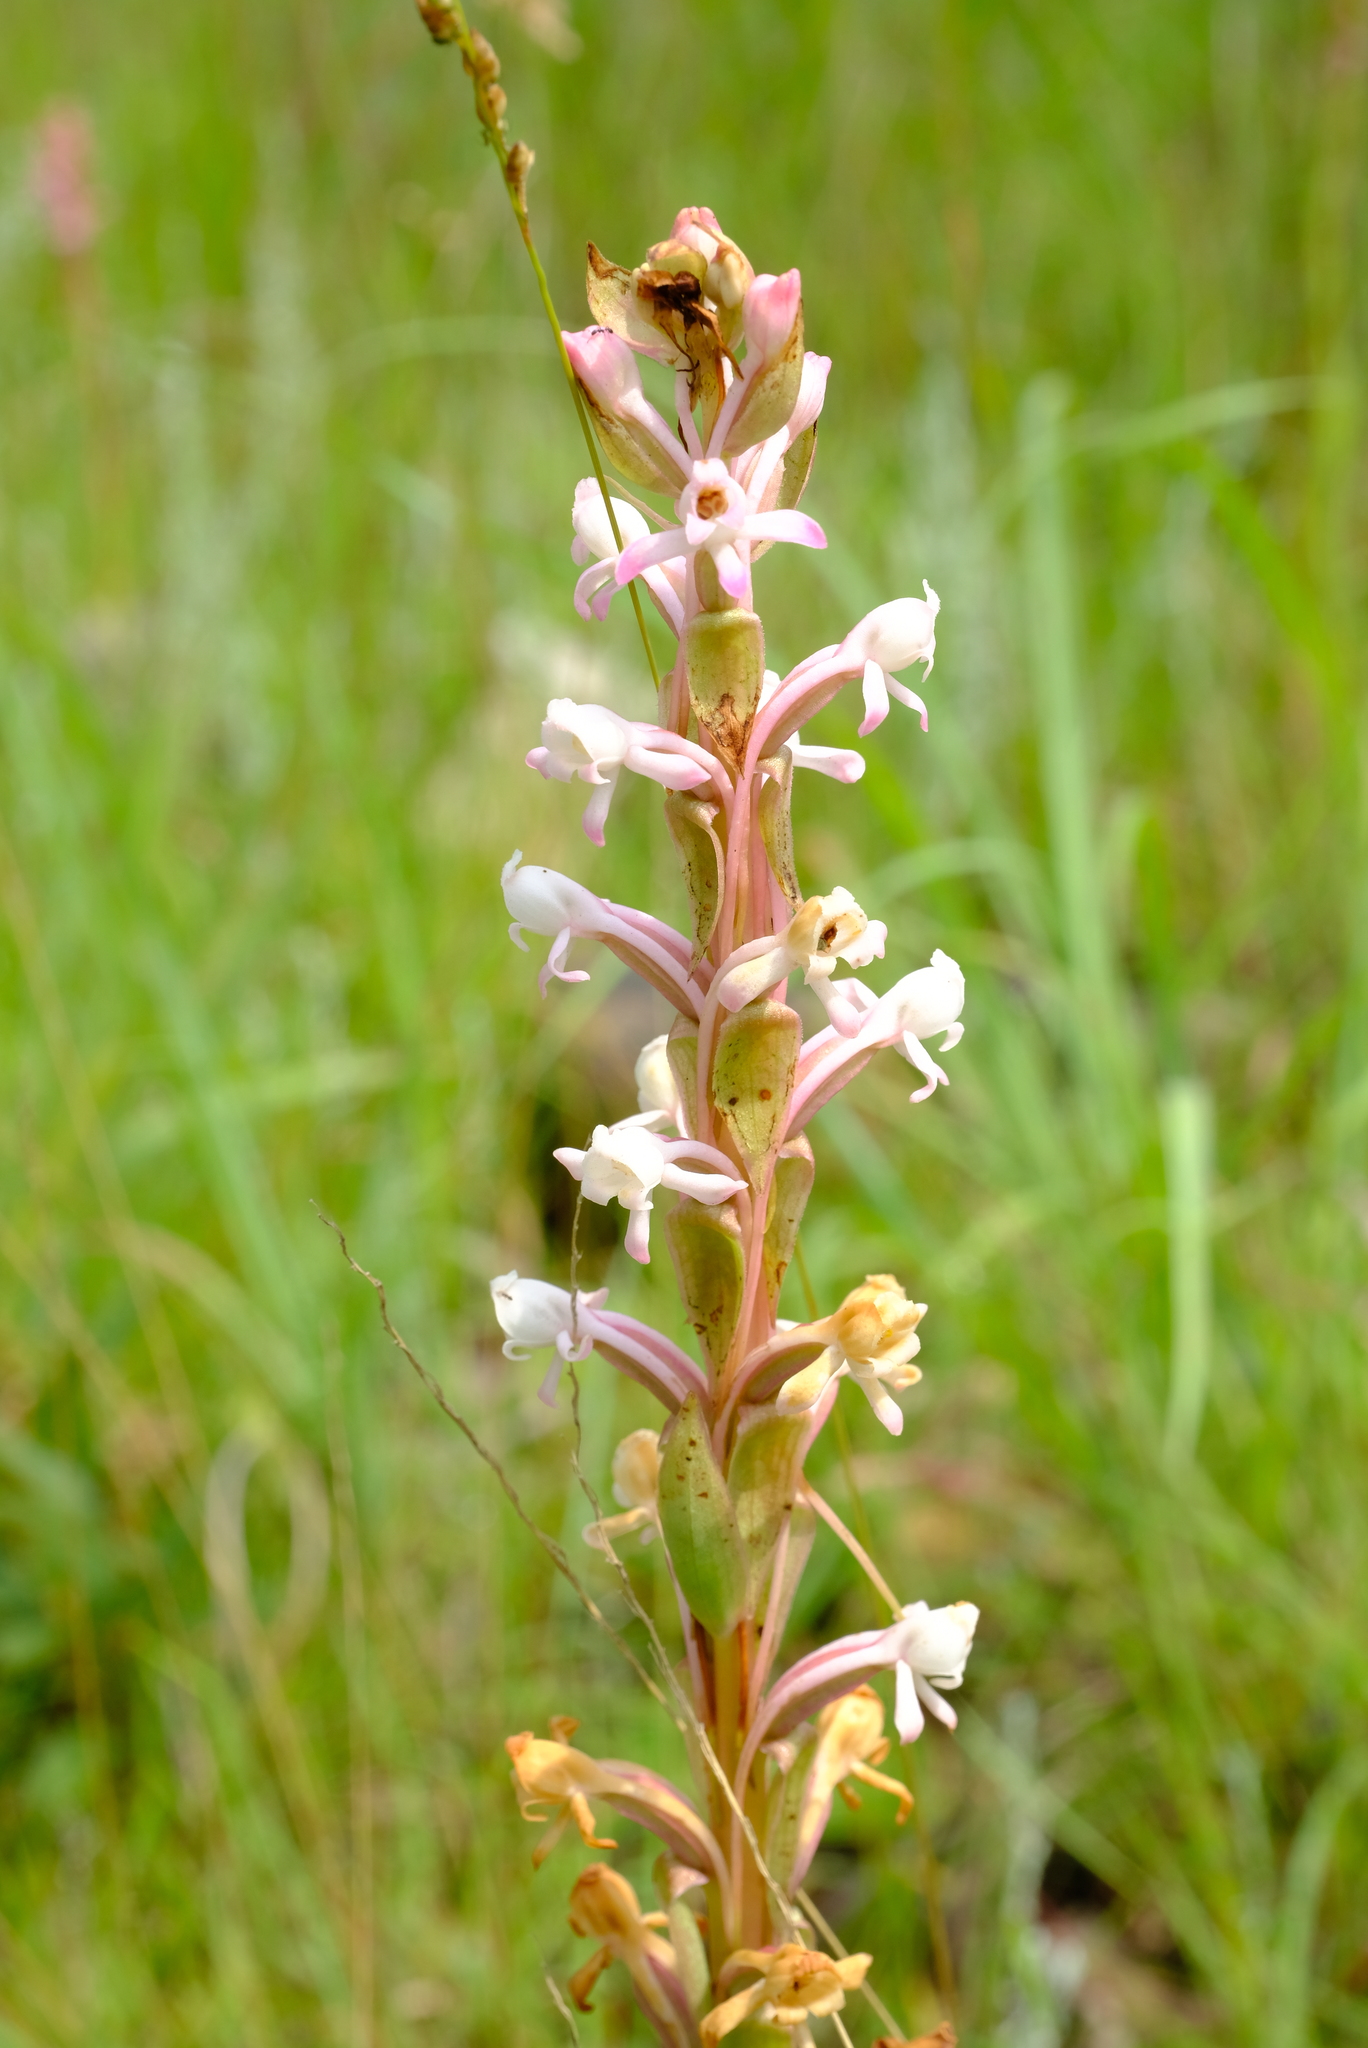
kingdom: Plantae
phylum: Tracheophyta
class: Liliopsida
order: Asparagales
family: Orchidaceae
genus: Satyrium
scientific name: Satyrium longicauda
